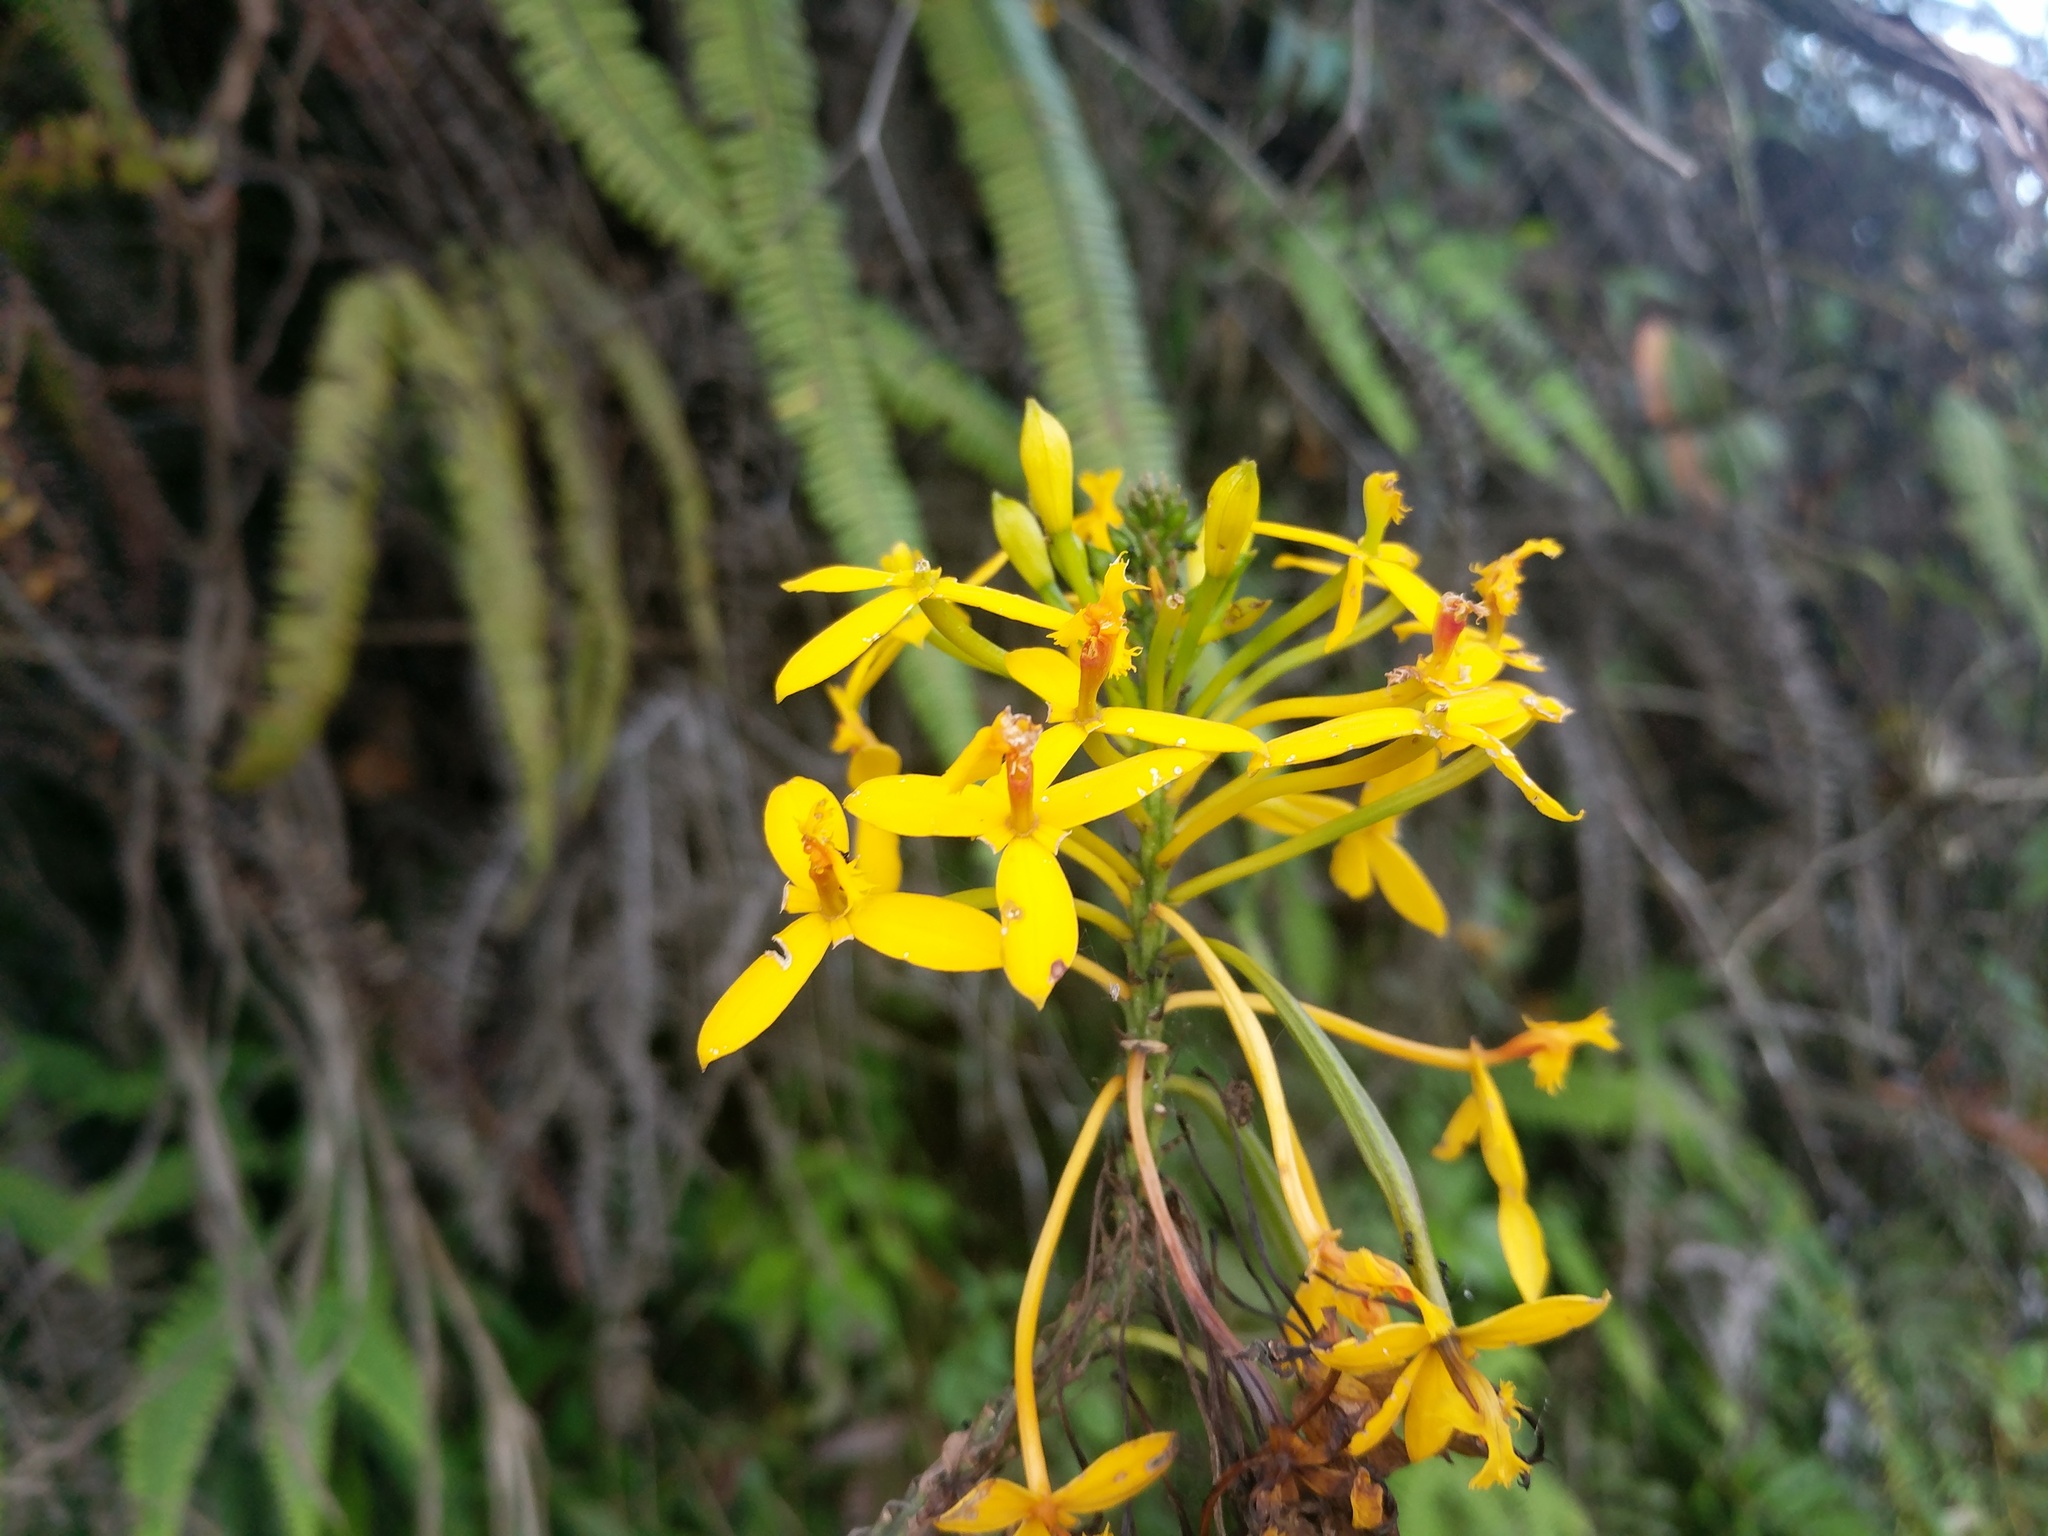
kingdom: Plantae
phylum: Tracheophyta
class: Liliopsida
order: Asparagales
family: Orchidaceae
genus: Epidendrum
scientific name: Epidendrum melinanthum
